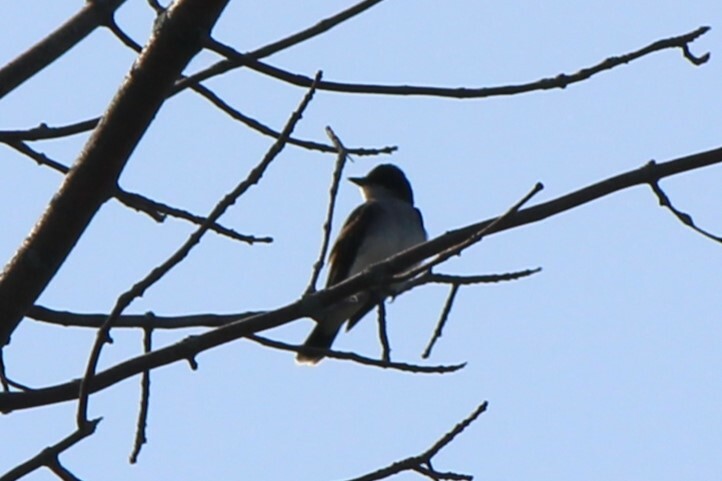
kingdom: Animalia
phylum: Chordata
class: Aves
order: Passeriformes
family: Tyrannidae
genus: Tyrannus
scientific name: Tyrannus tyrannus
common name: Eastern kingbird
